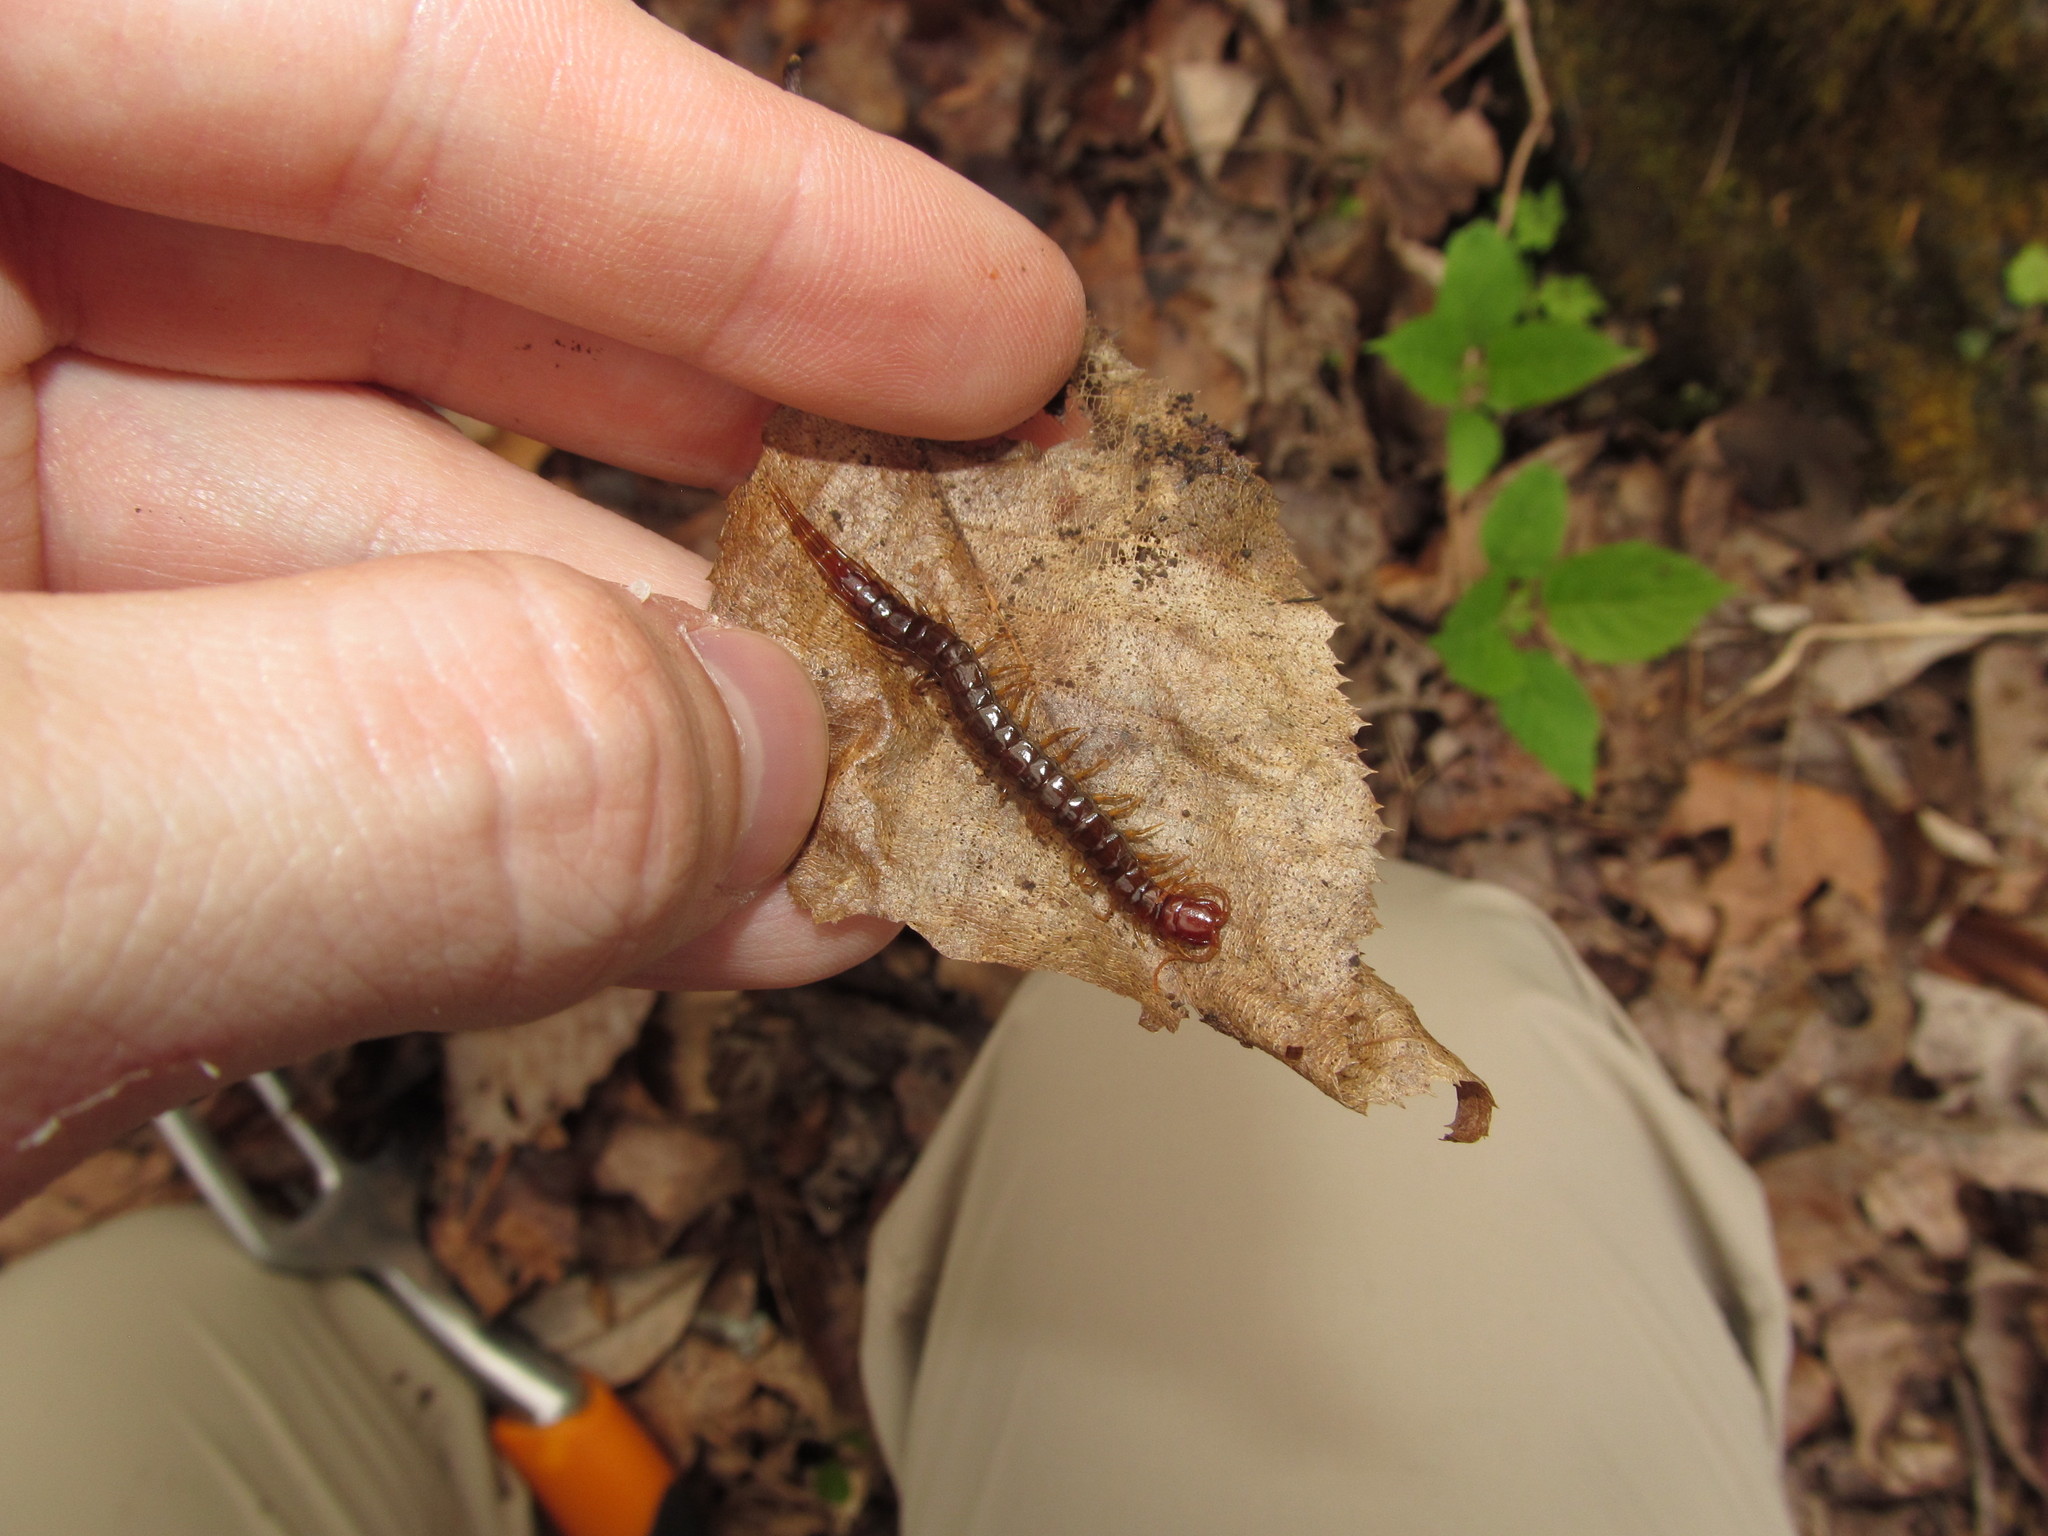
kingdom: Animalia
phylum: Arthropoda
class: Chilopoda
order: Scolopendromorpha
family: Scolopocryptopidae
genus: Scolopocryptops
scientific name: Scolopocryptops nigridius
